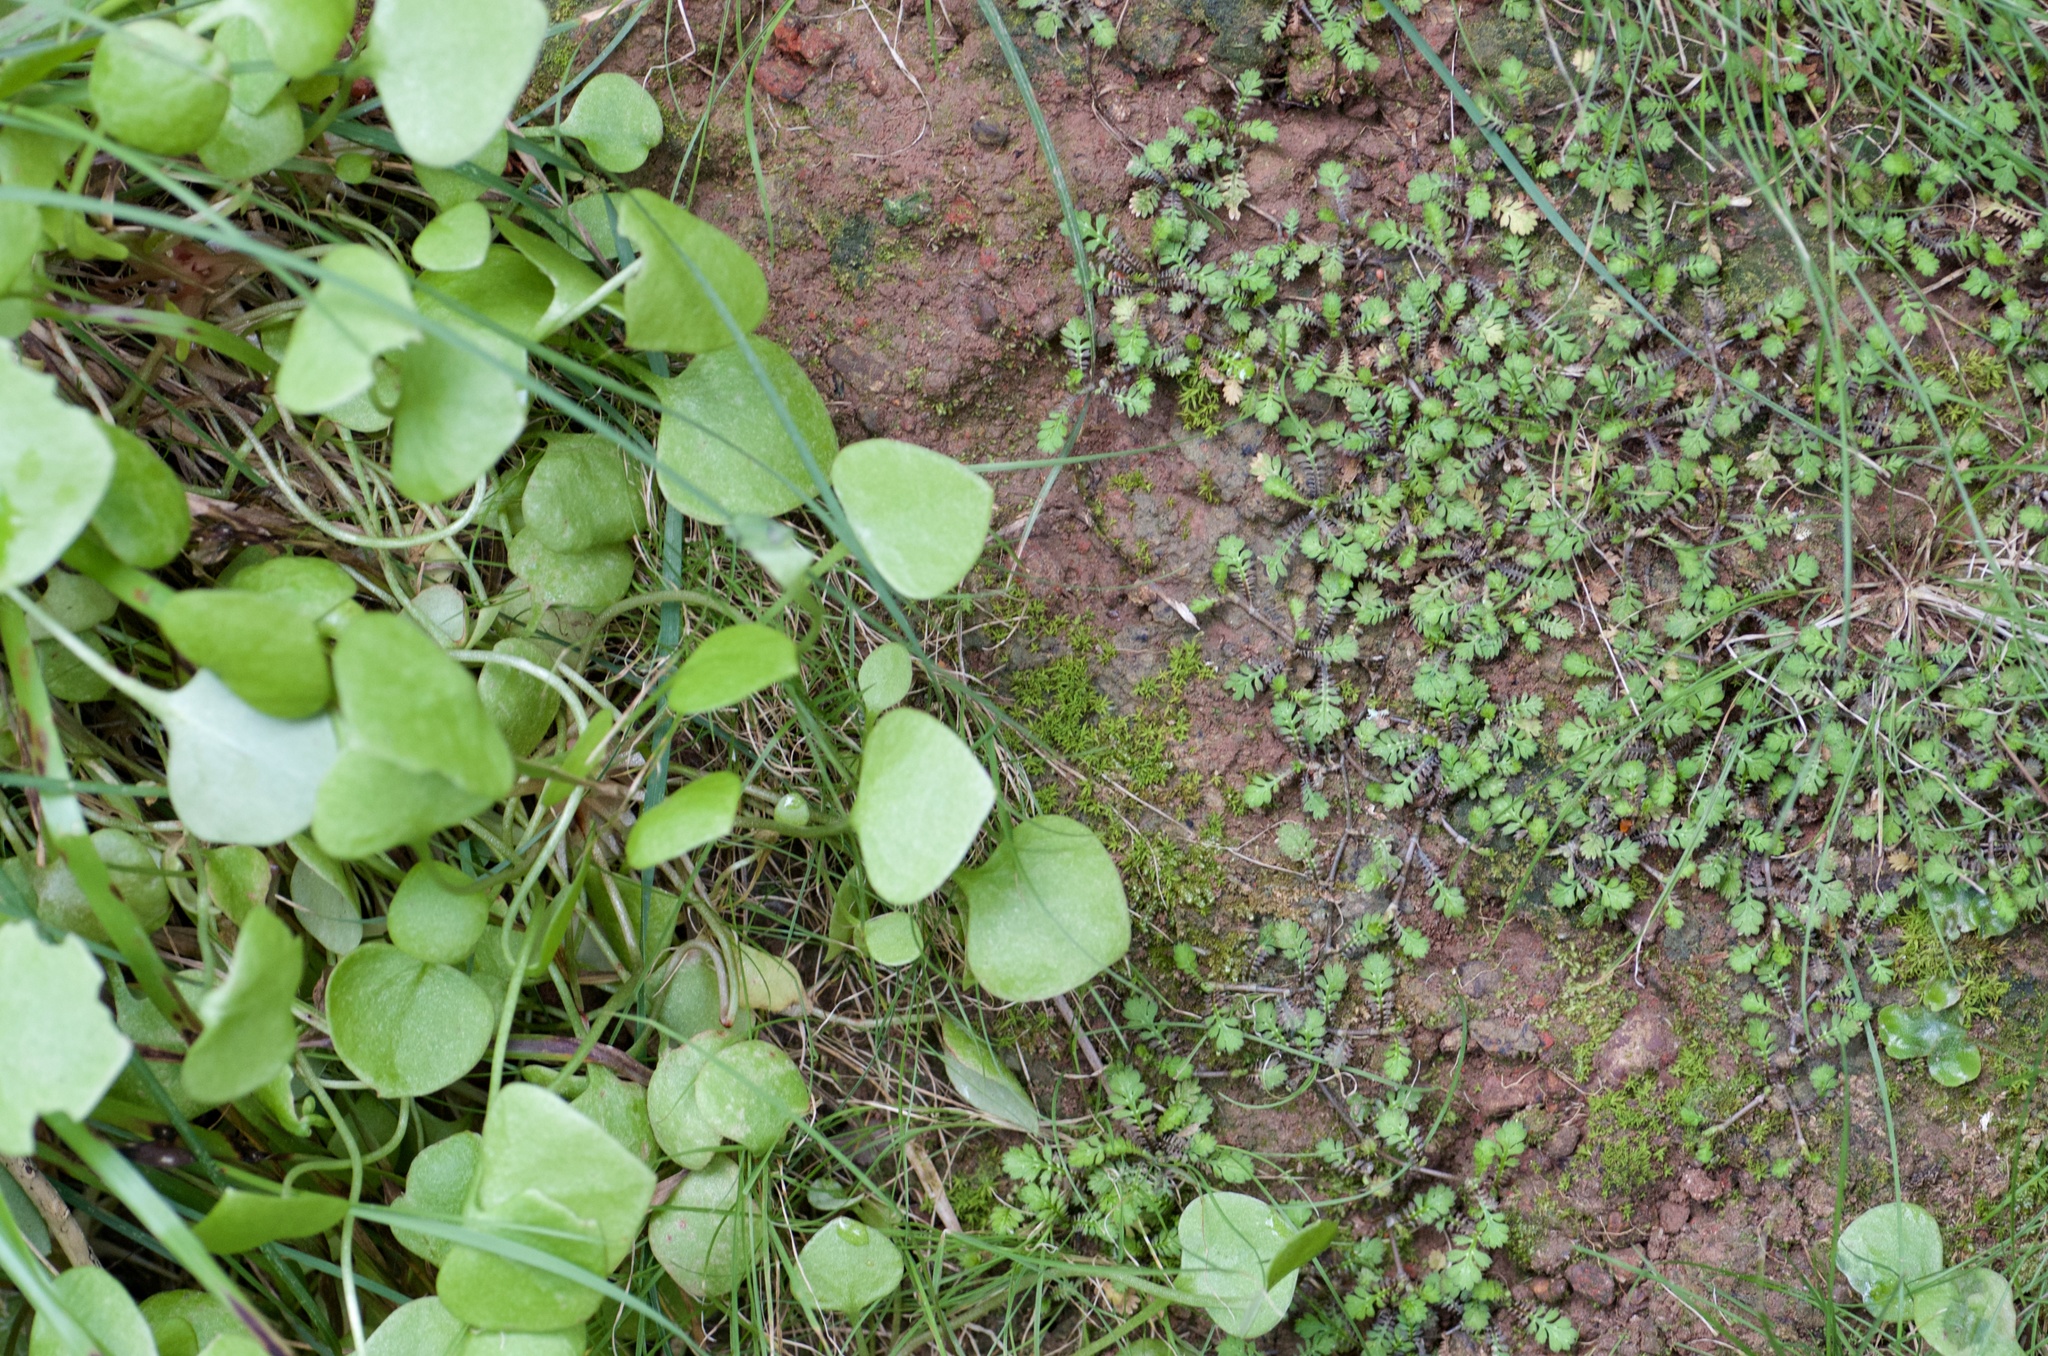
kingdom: Plantae
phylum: Tracheophyta
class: Magnoliopsida
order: Caryophyllales
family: Montiaceae
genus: Claytonia
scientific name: Claytonia perfoliata
